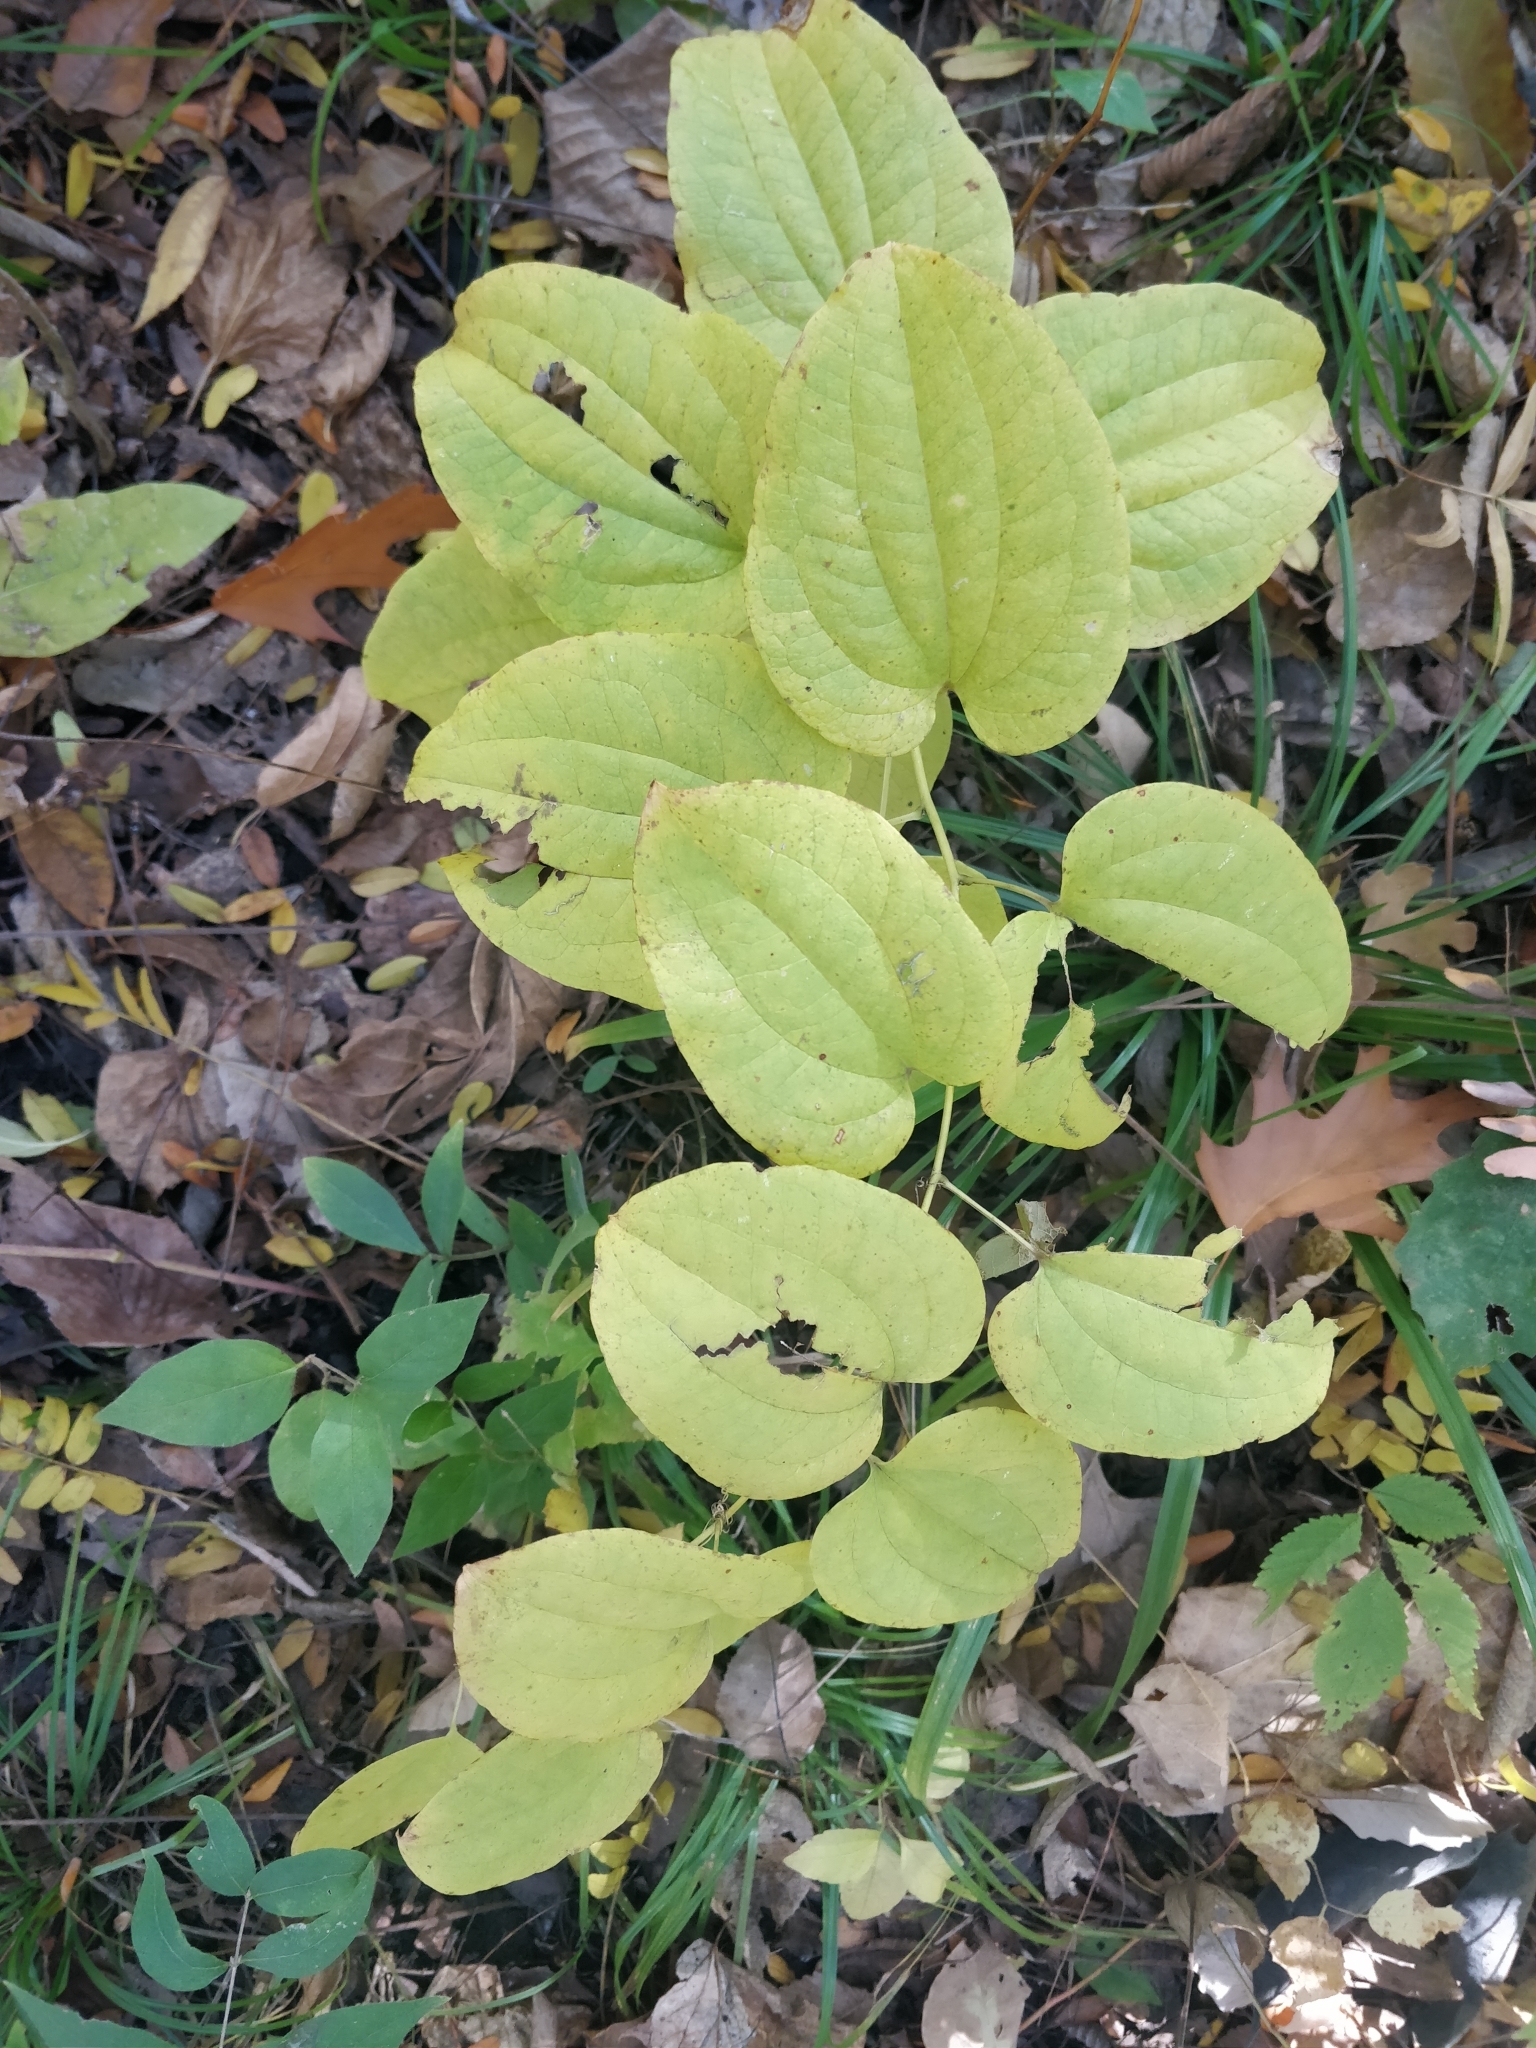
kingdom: Plantae
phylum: Tracheophyta
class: Liliopsida
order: Liliales
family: Smilacaceae
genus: Smilax
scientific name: Smilax lasioneura
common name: Blue ridge carrionflower
